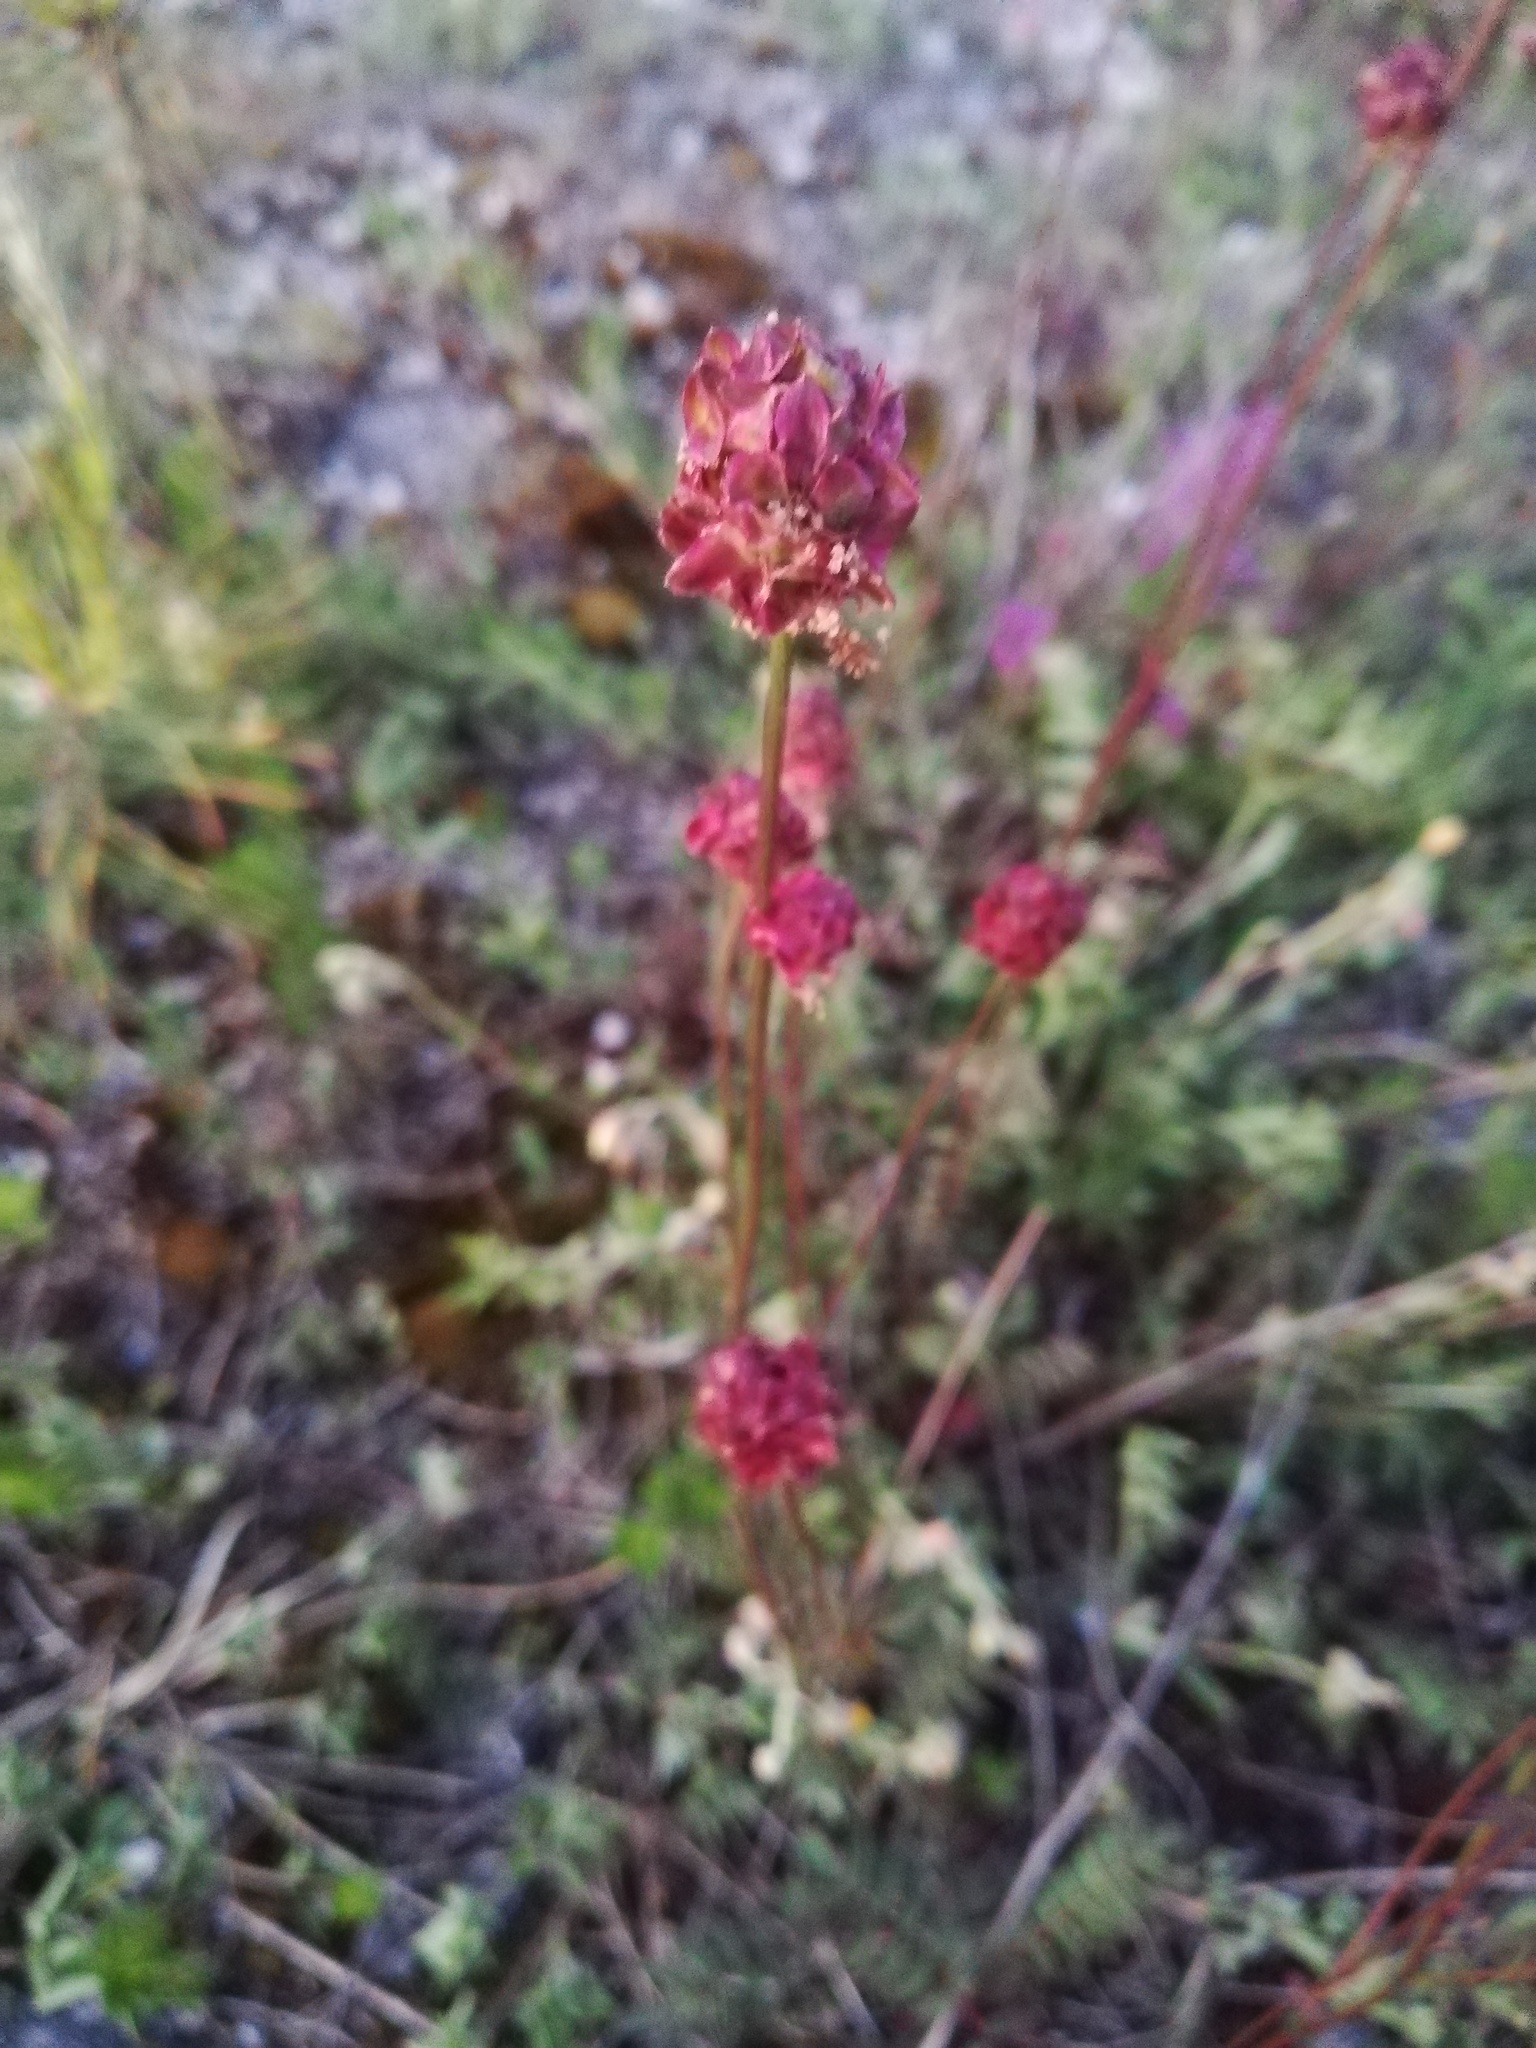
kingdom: Plantae
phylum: Tracheophyta
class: Magnoliopsida
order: Rosales
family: Rosaceae
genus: Poterium
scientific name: Poterium sanguisorba
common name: Salad burnet
